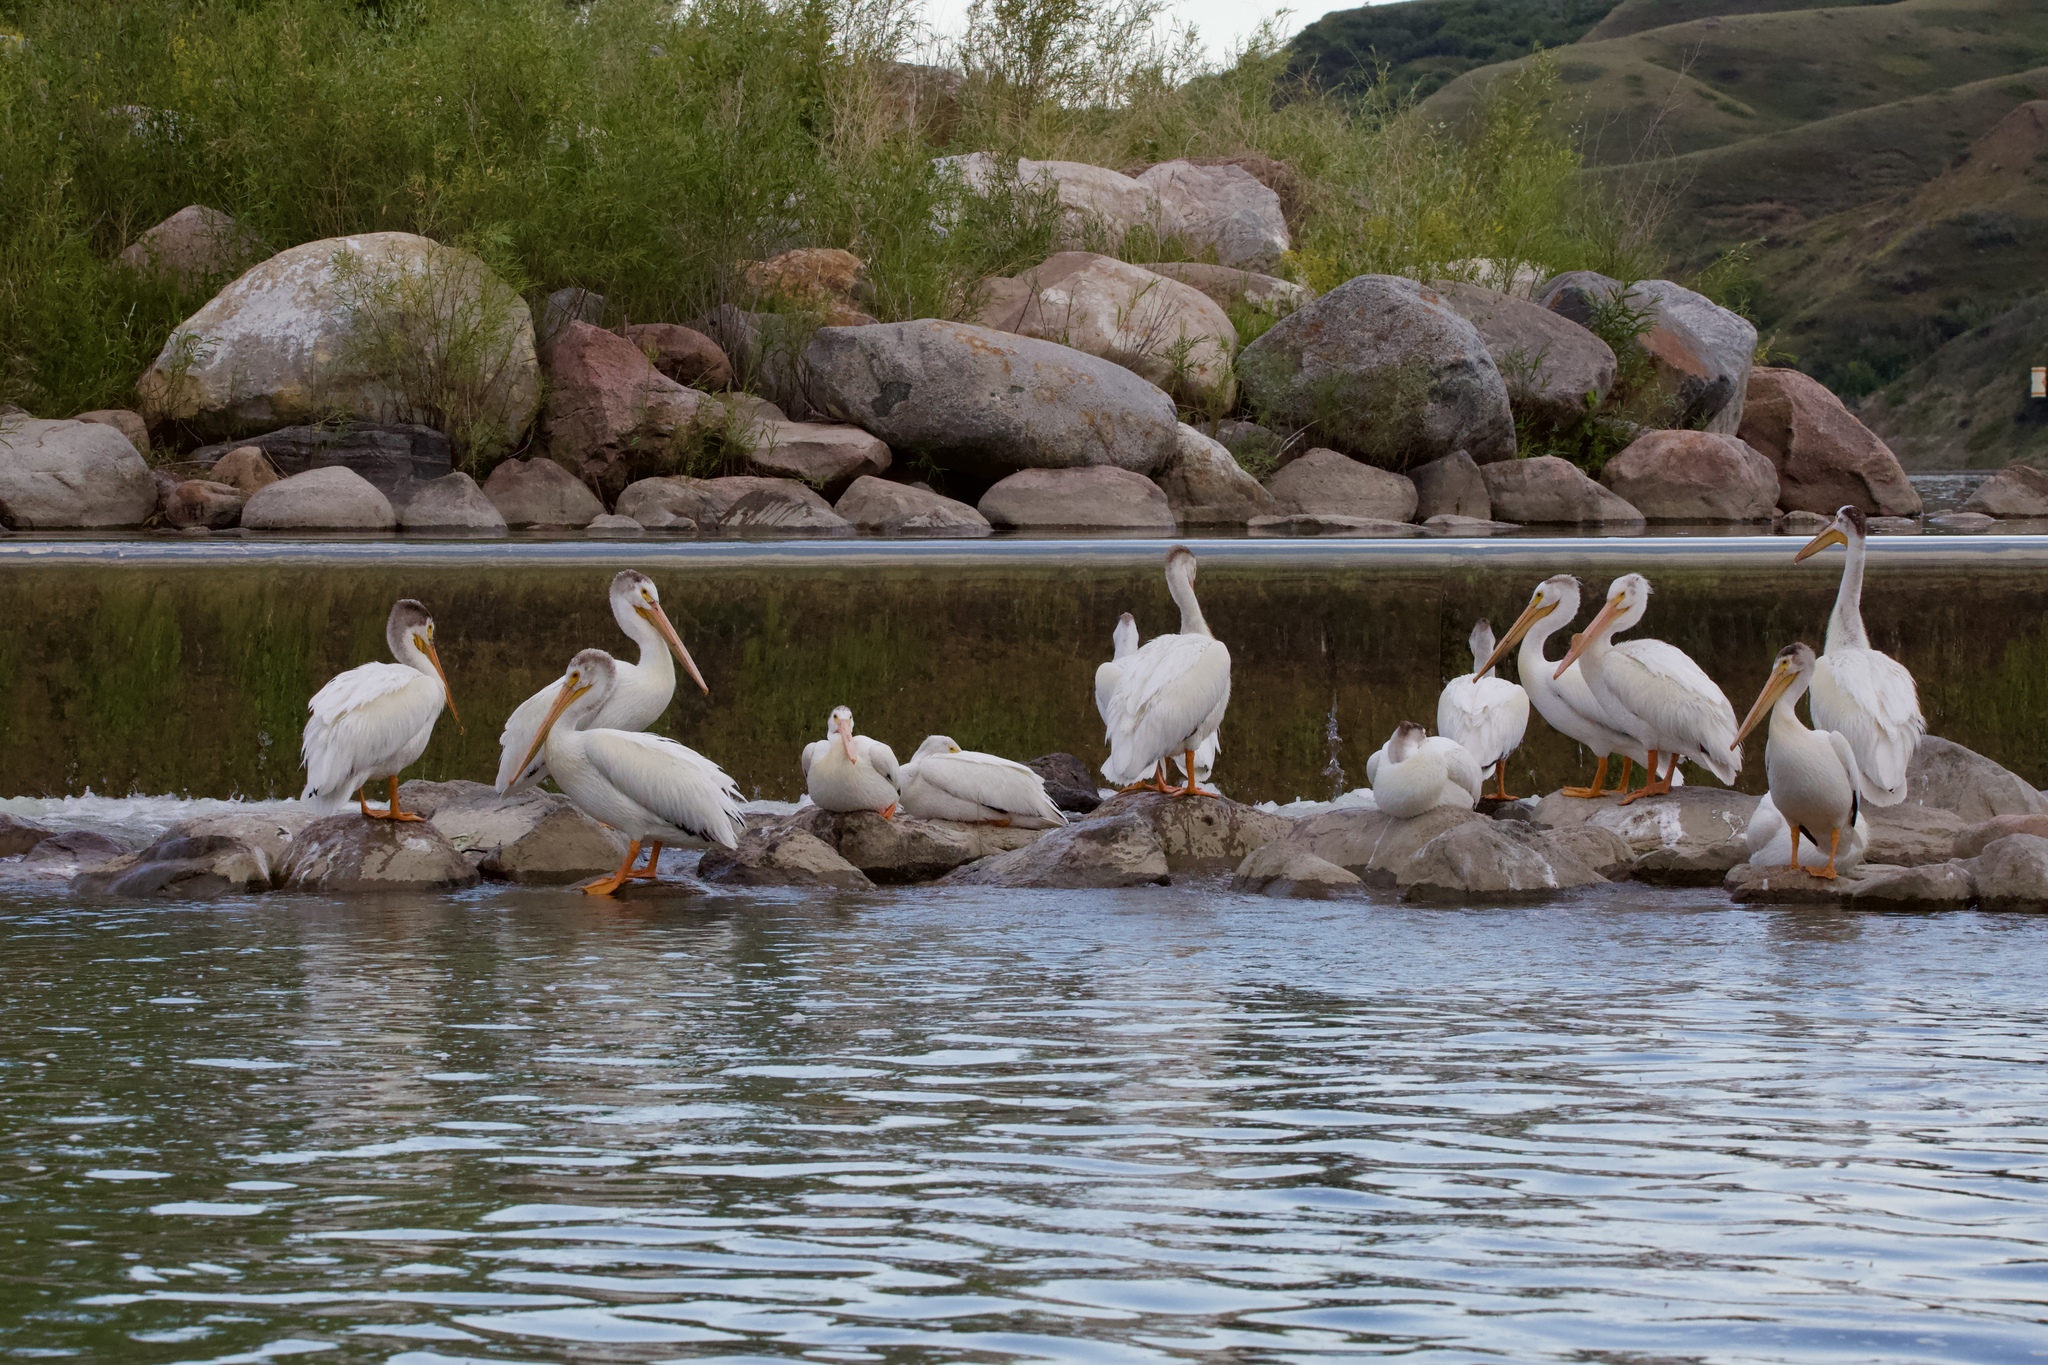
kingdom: Animalia
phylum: Chordata
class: Aves
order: Pelecaniformes
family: Pelecanidae
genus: Pelecanus
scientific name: Pelecanus erythrorhynchos
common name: American white pelican
